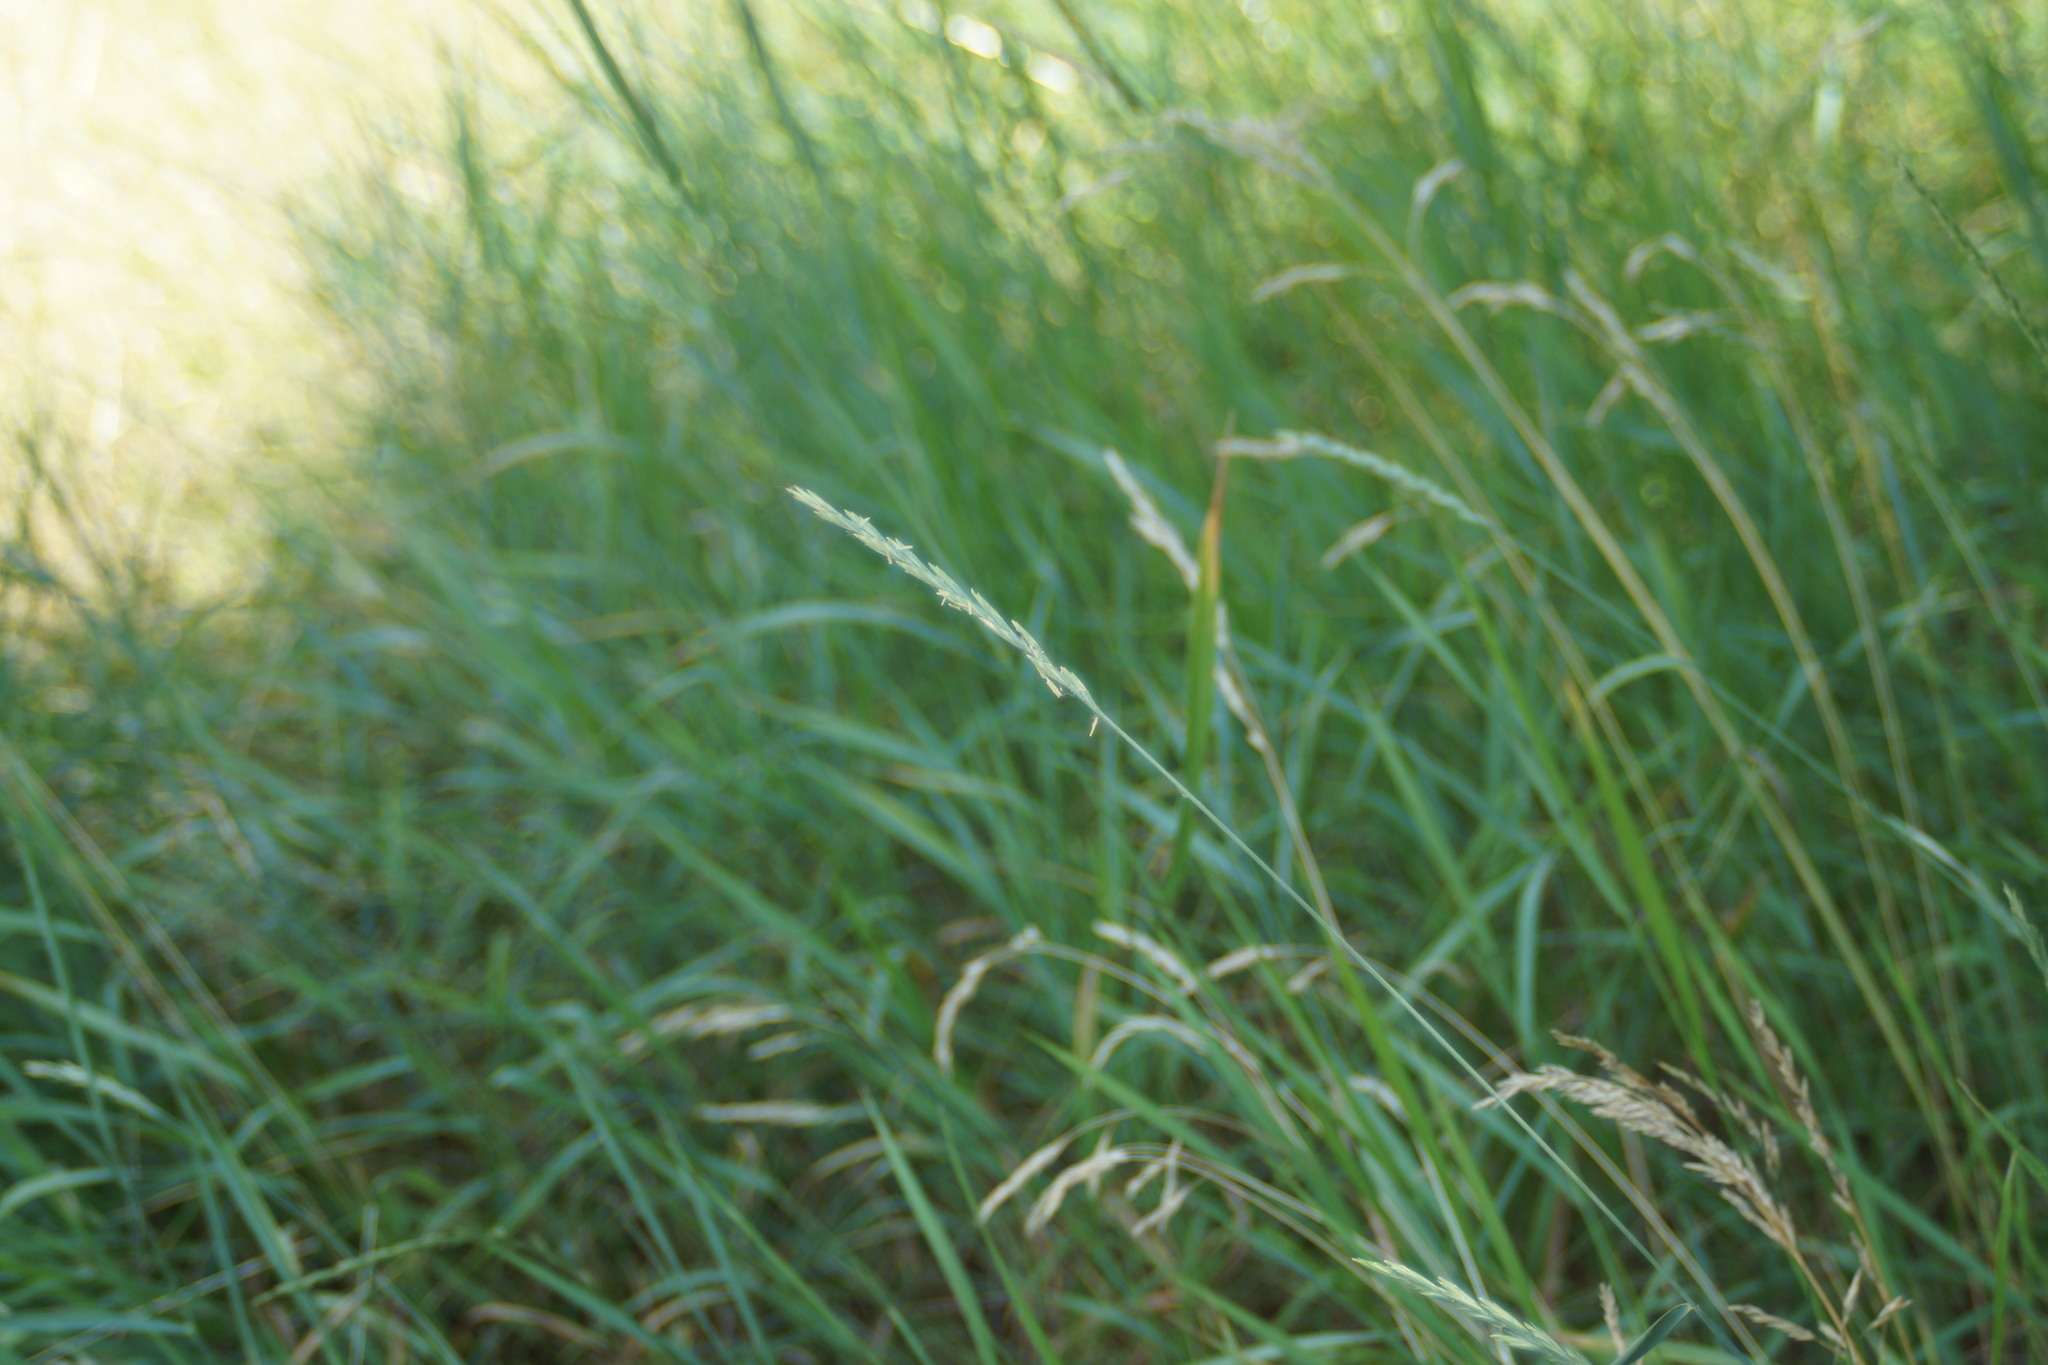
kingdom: Plantae
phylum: Tracheophyta
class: Liliopsida
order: Poales
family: Poaceae
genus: Elymus
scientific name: Elymus repens
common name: Quackgrass
